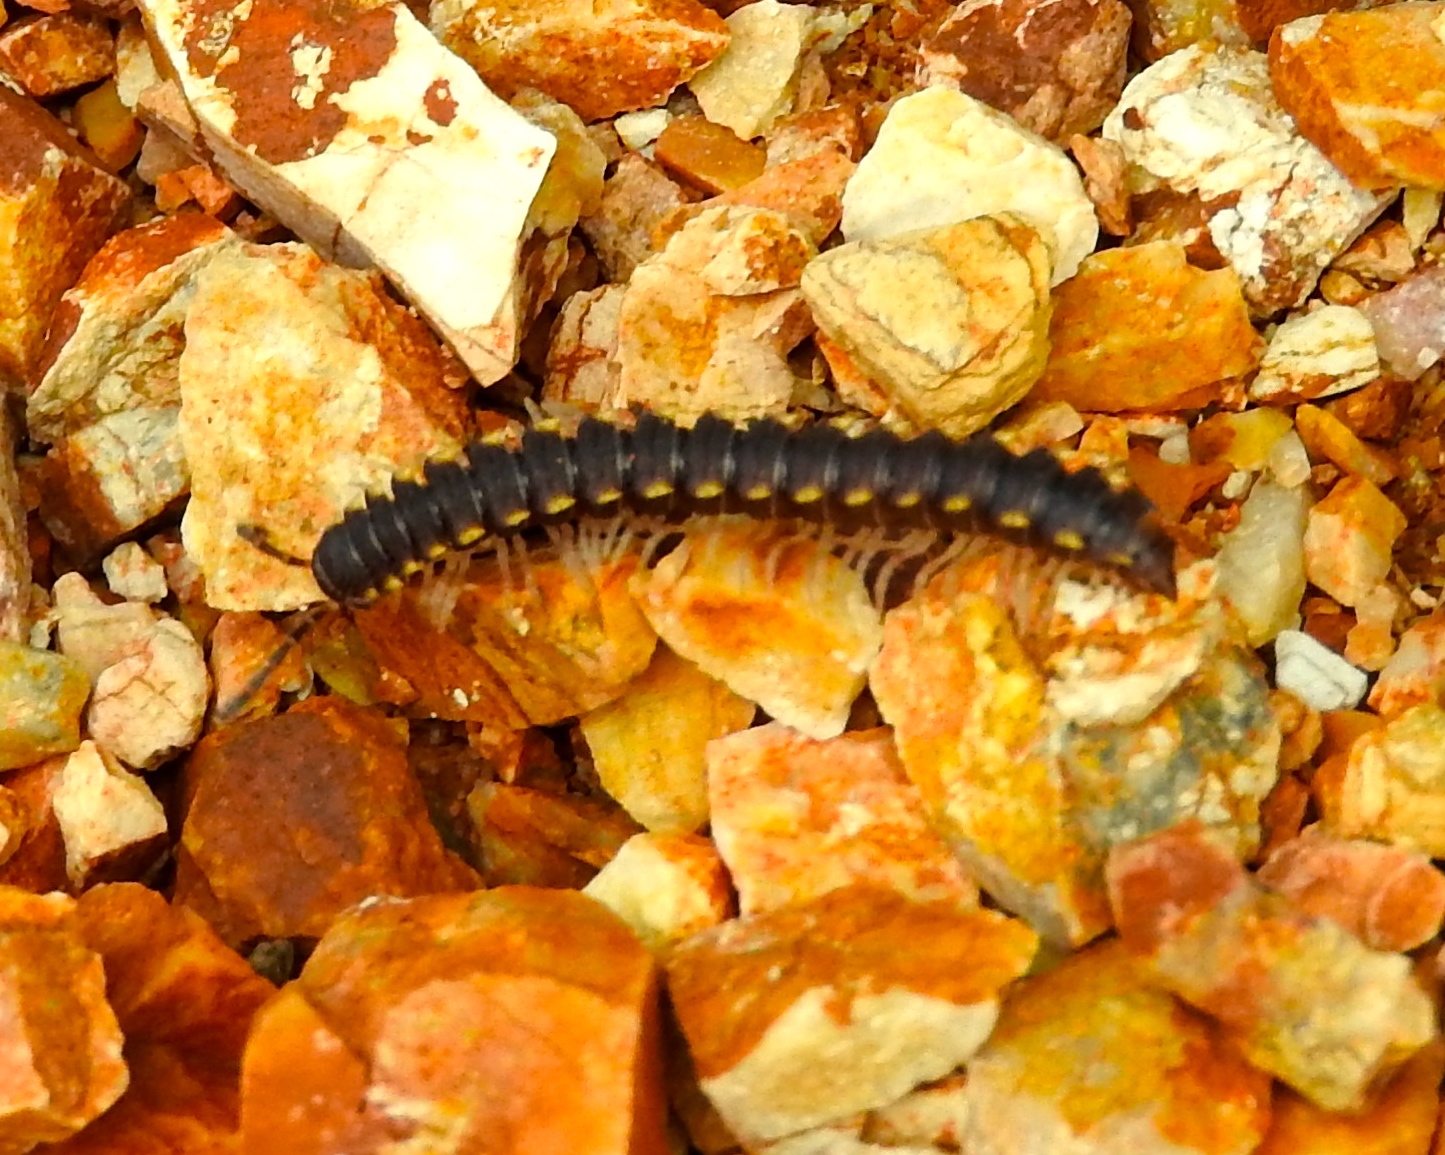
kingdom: Animalia
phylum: Arthropoda
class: Diplopoda
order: Polydesmida
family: Paradoxosomatidae
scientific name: Paradoxosomatidae
